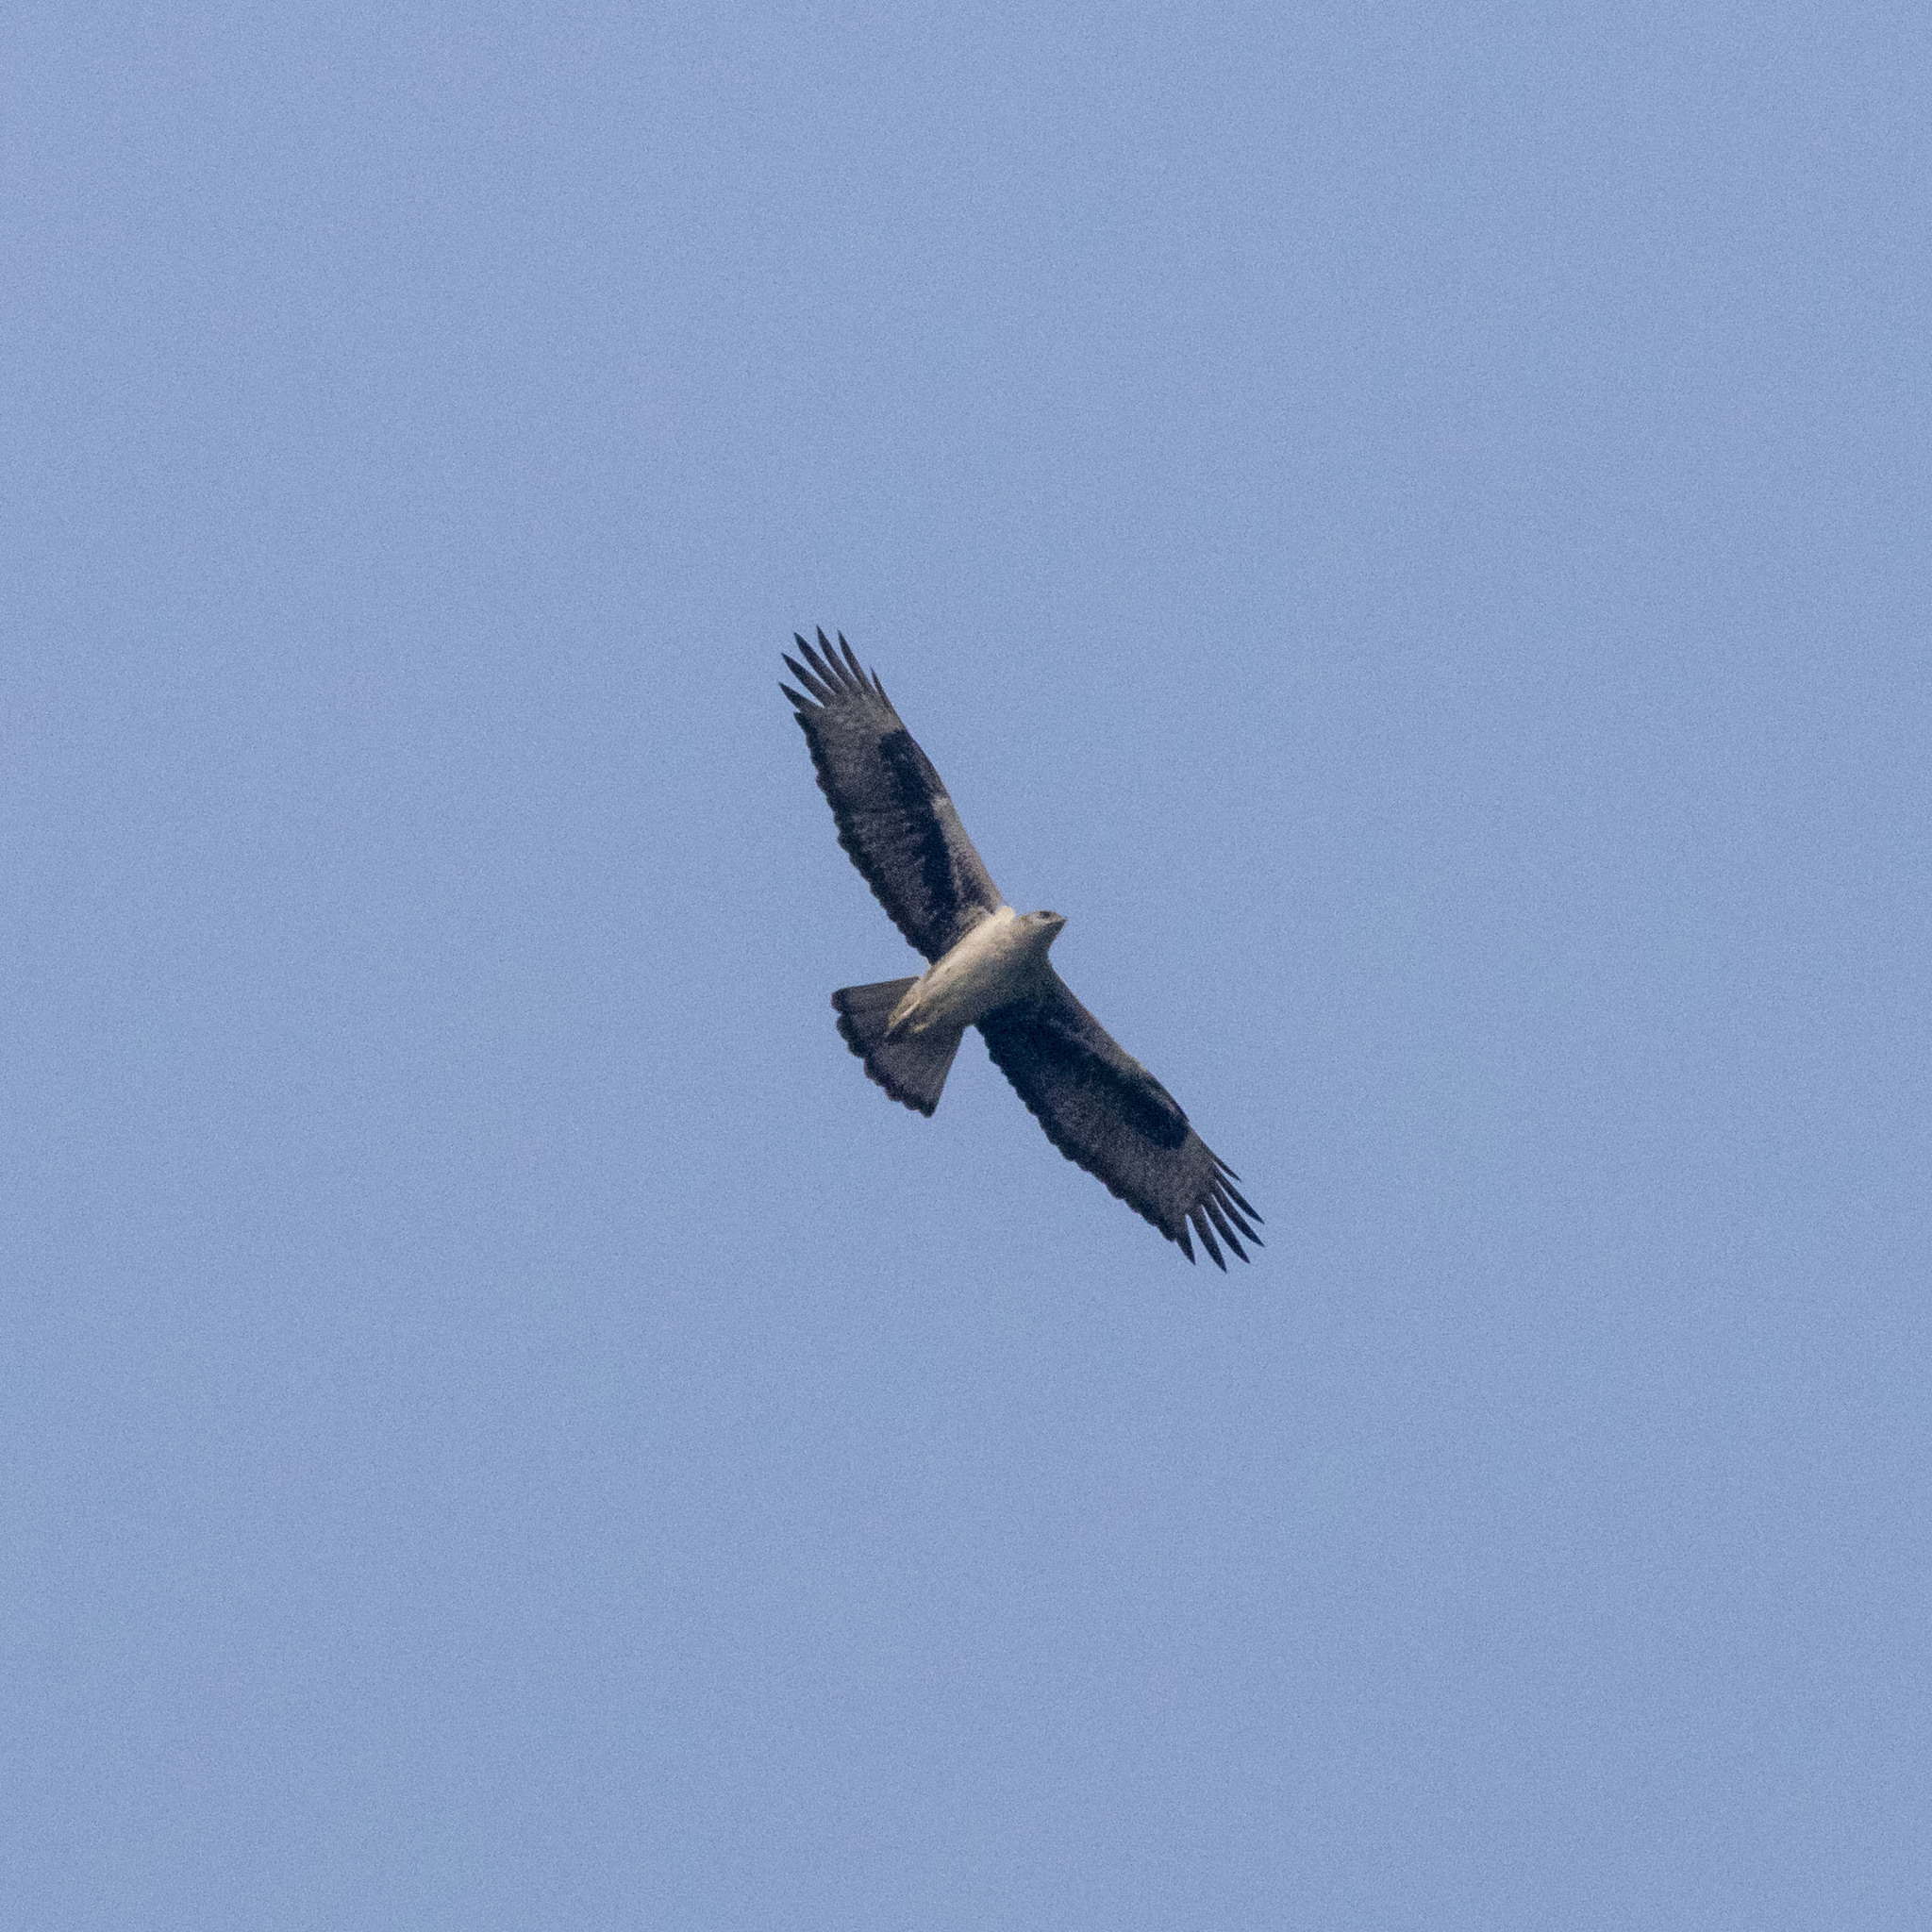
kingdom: Animalia
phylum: Chordata
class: Aves
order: Accipitriformes
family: Accipitridae
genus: Aquila
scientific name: Aquila fasciata
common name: Bonelli's eagle
